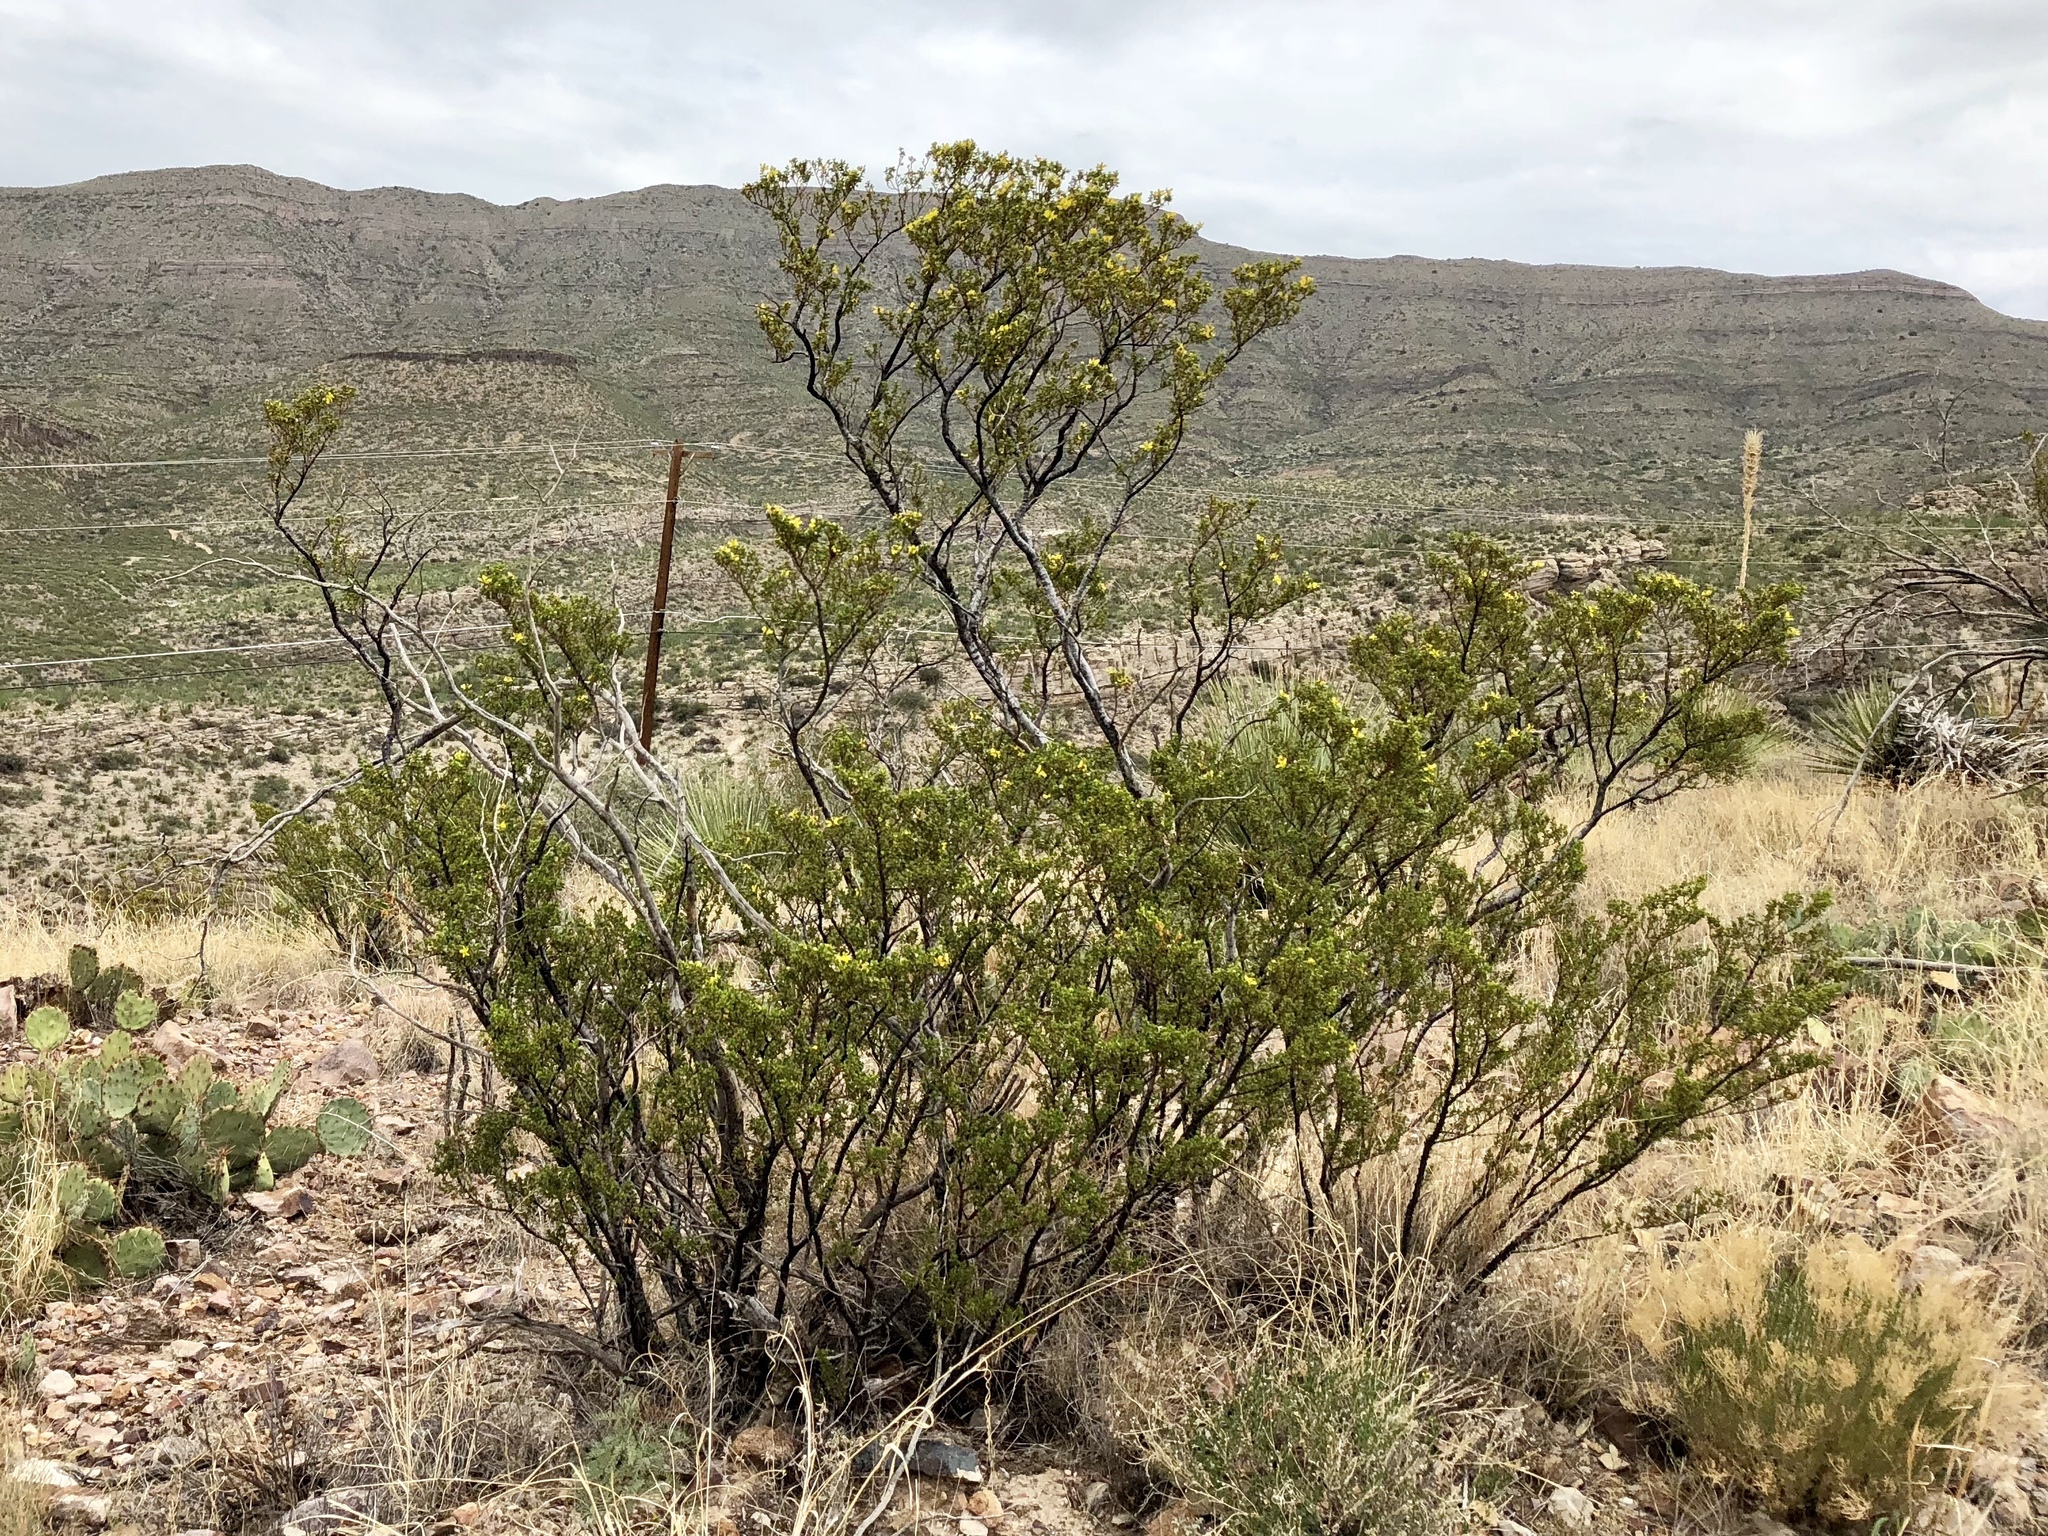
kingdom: Plantae
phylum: Tracheophyta
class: Magnoliopsida
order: Zygophyllales
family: Zygophyllaceae
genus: Larrea
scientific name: Larrea tridentata
